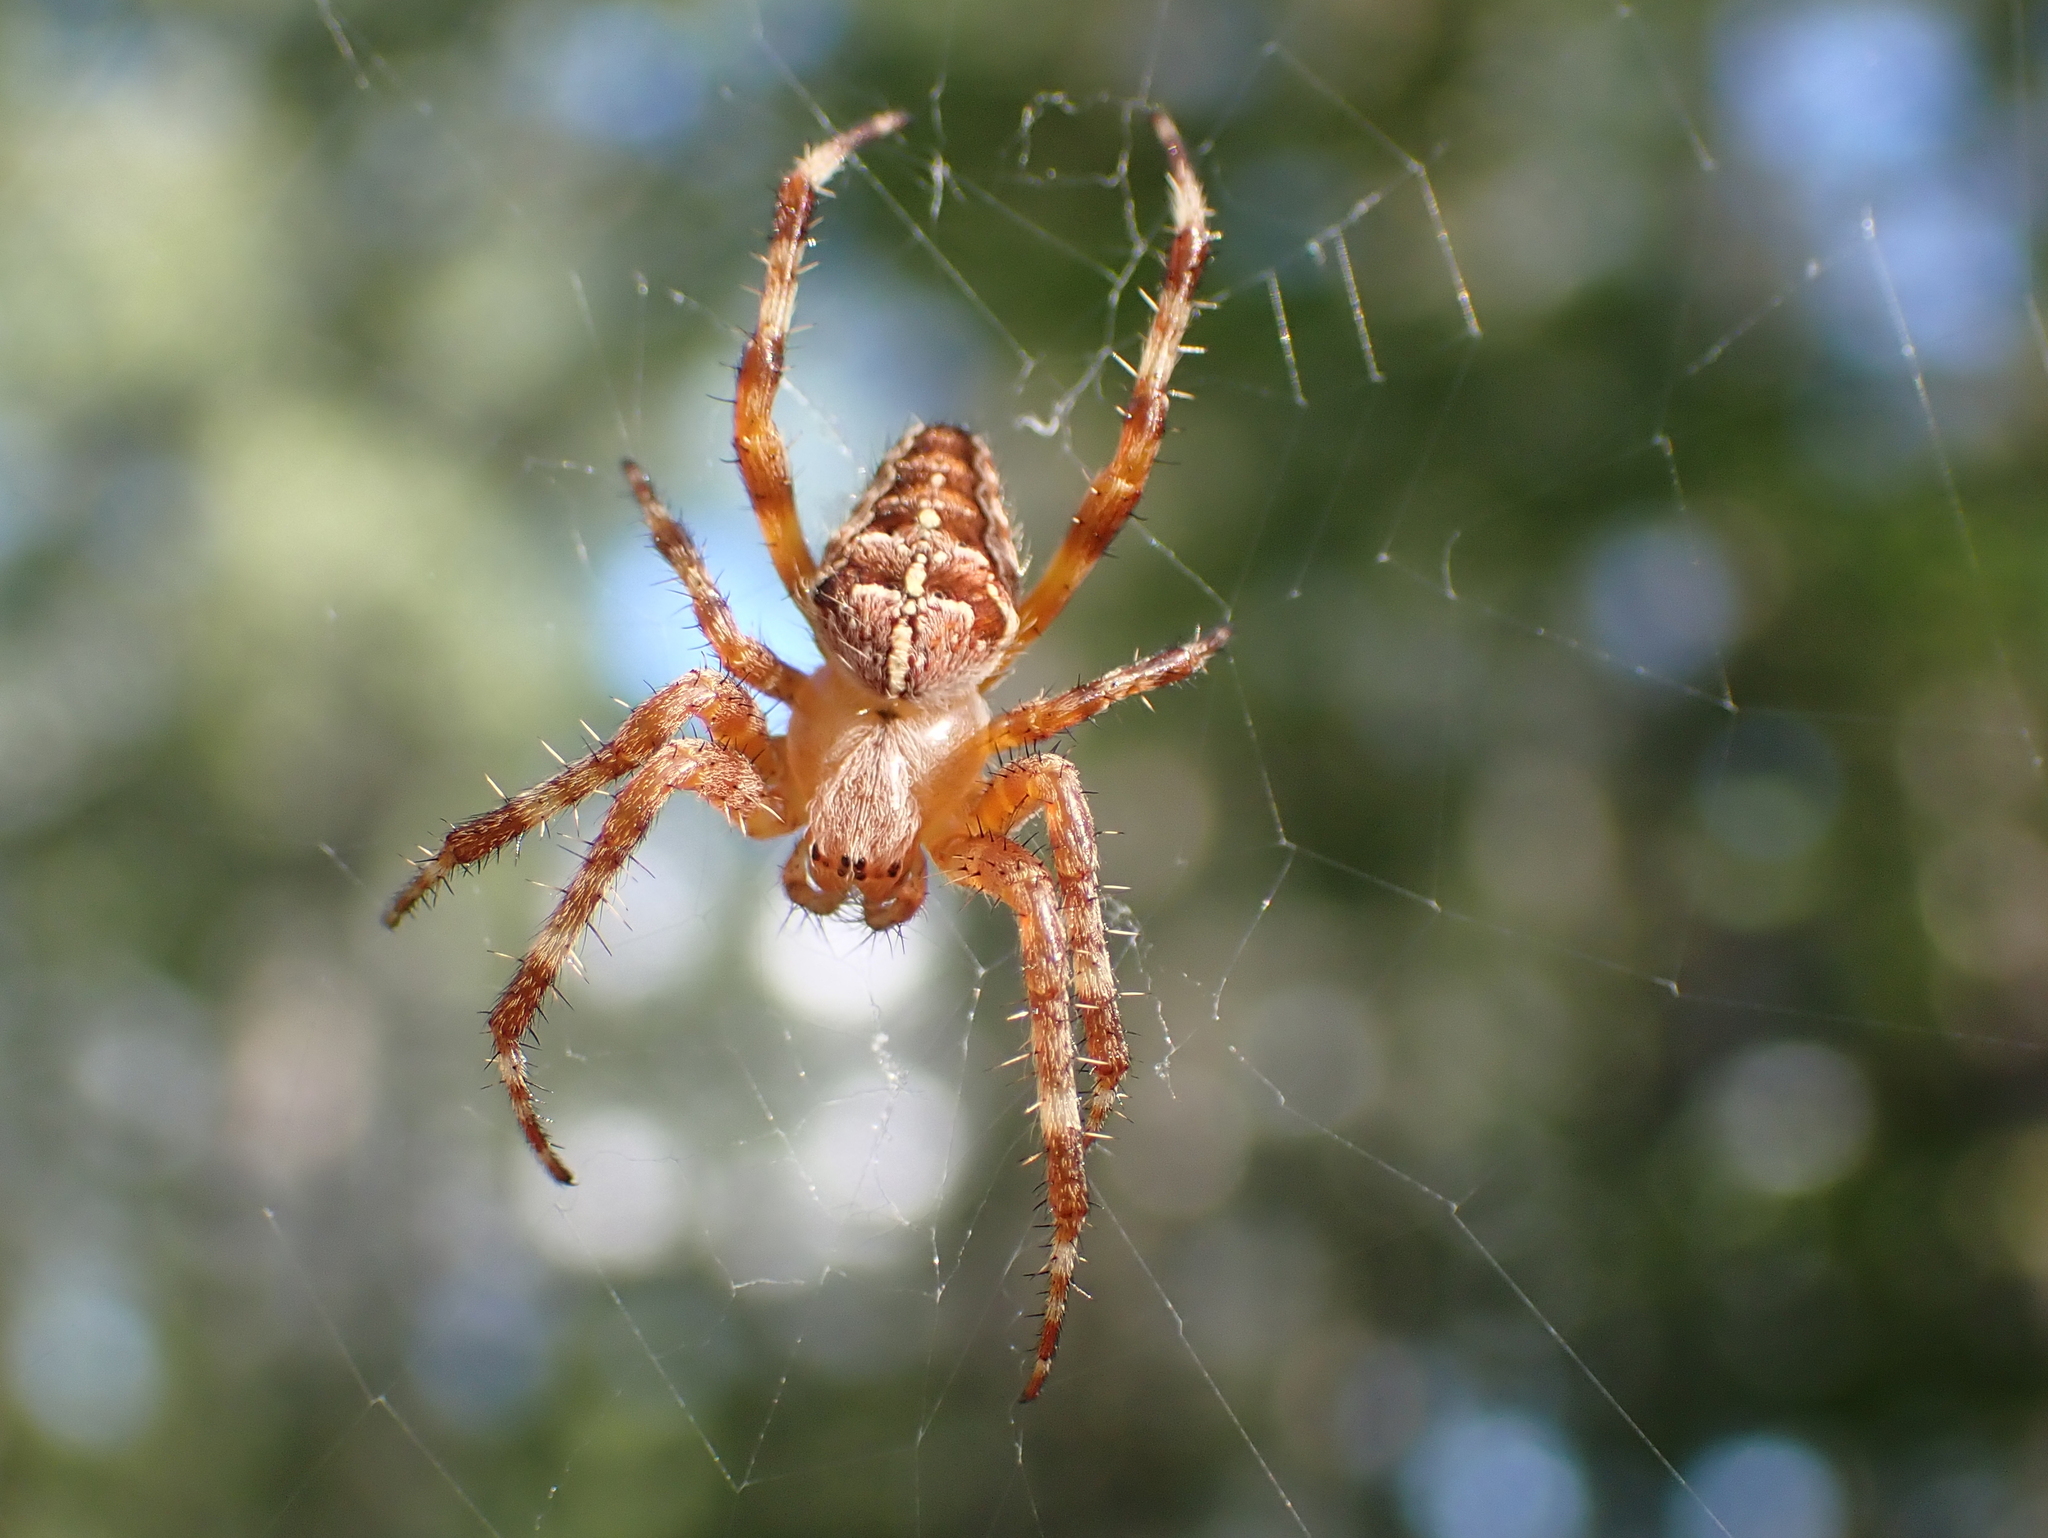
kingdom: Animalia
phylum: Arthropoda
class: Arachnida
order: Araneae
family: Araneidae
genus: Araneus
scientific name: Araneus diadematus
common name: Cross orbweaver
